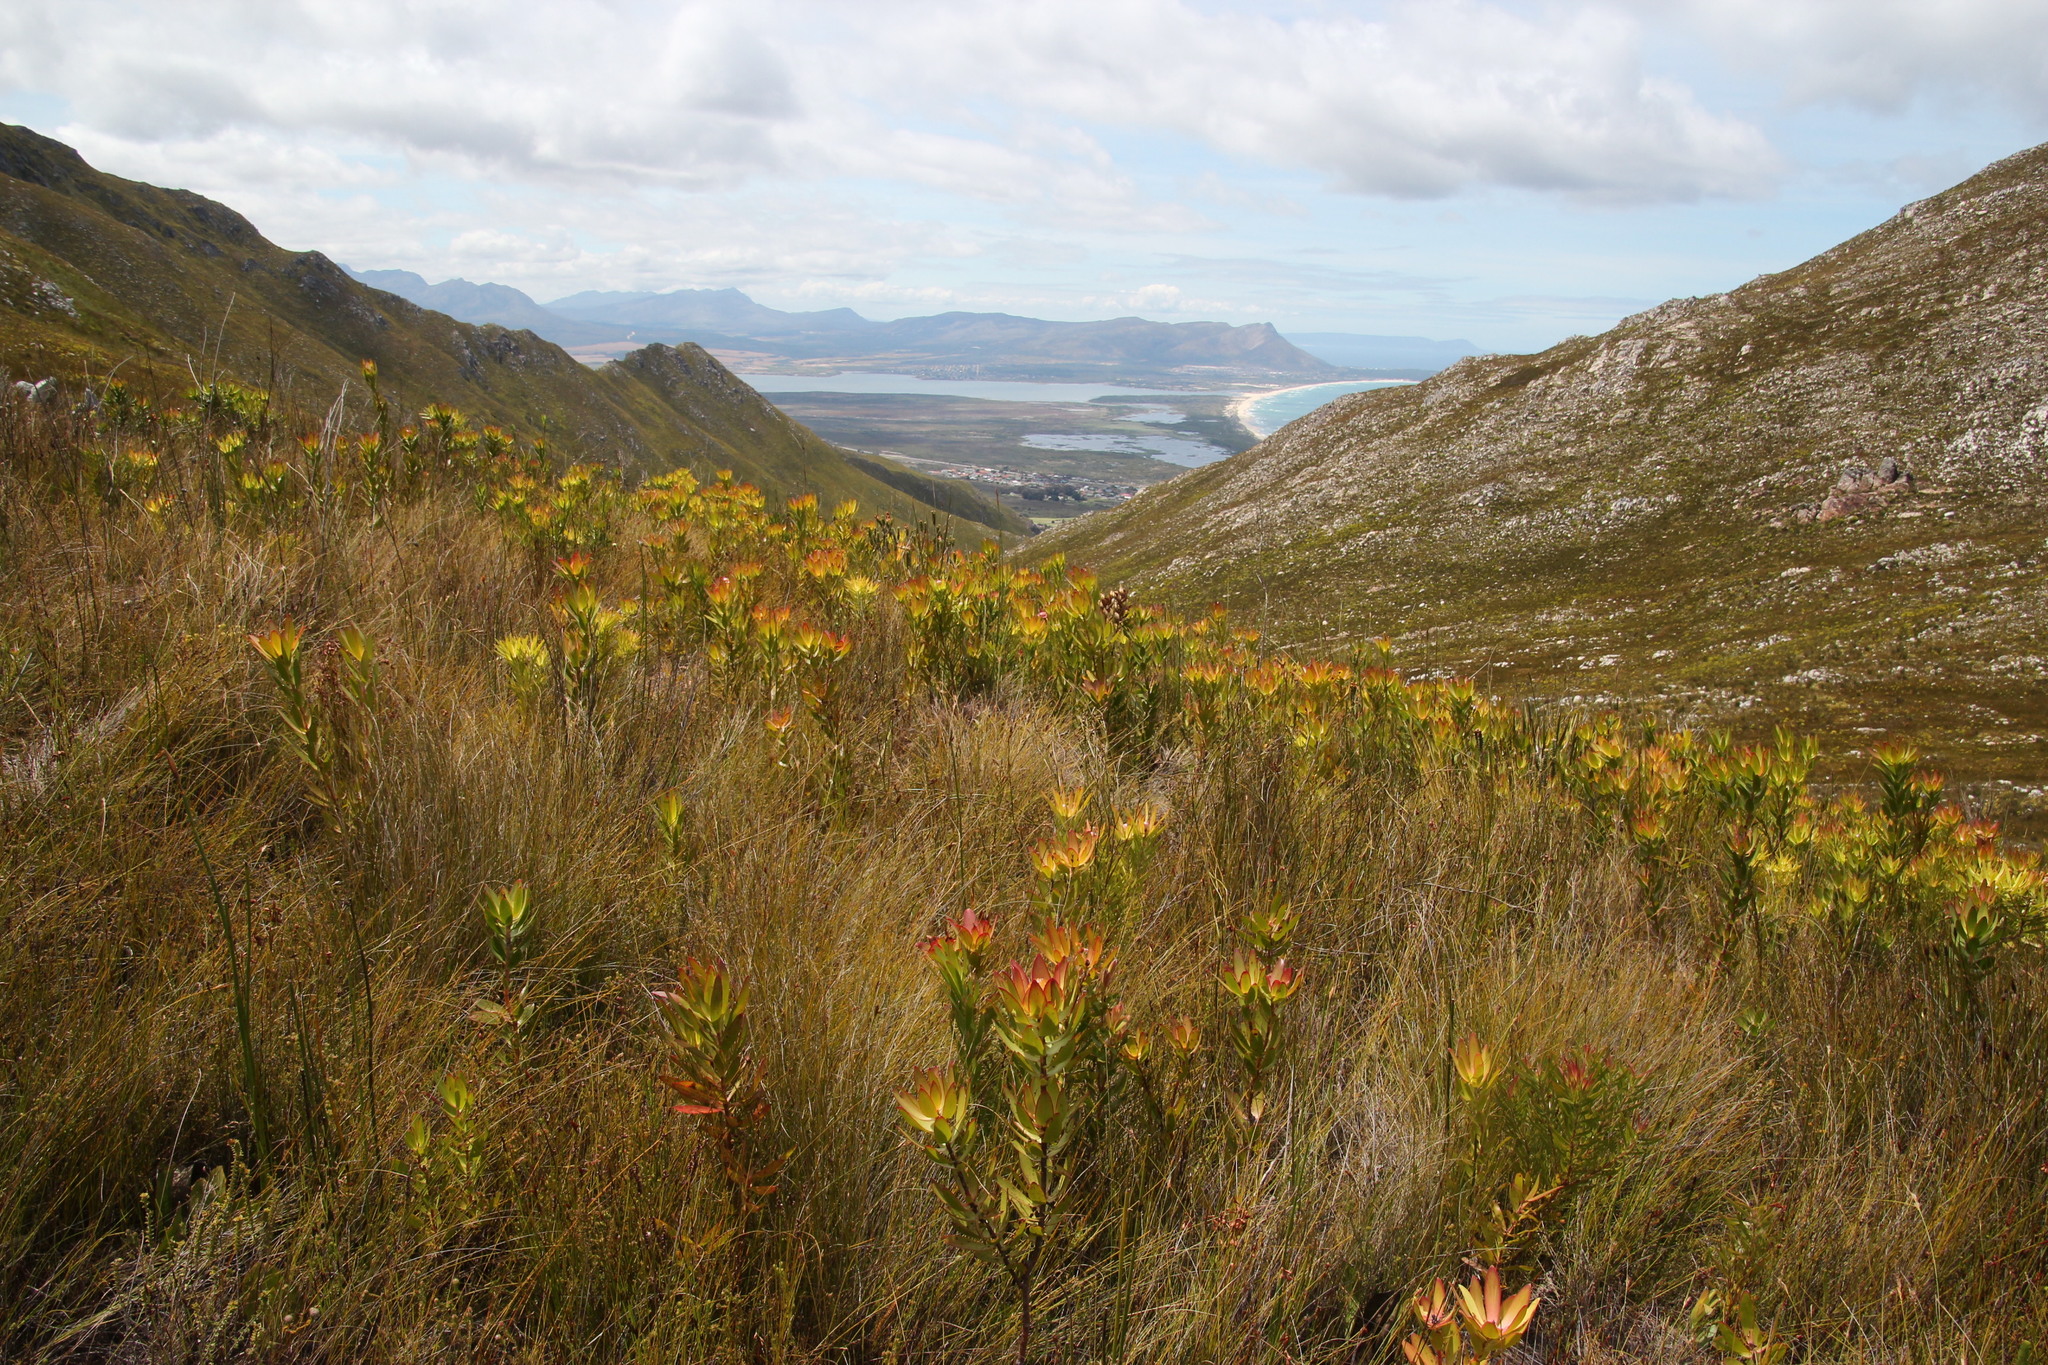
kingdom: Plantae
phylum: Tracheophyta
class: Magnoliopsida
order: Proteales
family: Proteaceae
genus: Leucadendron
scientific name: Leucadendron gandogeri
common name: Broad-leaf conebush
